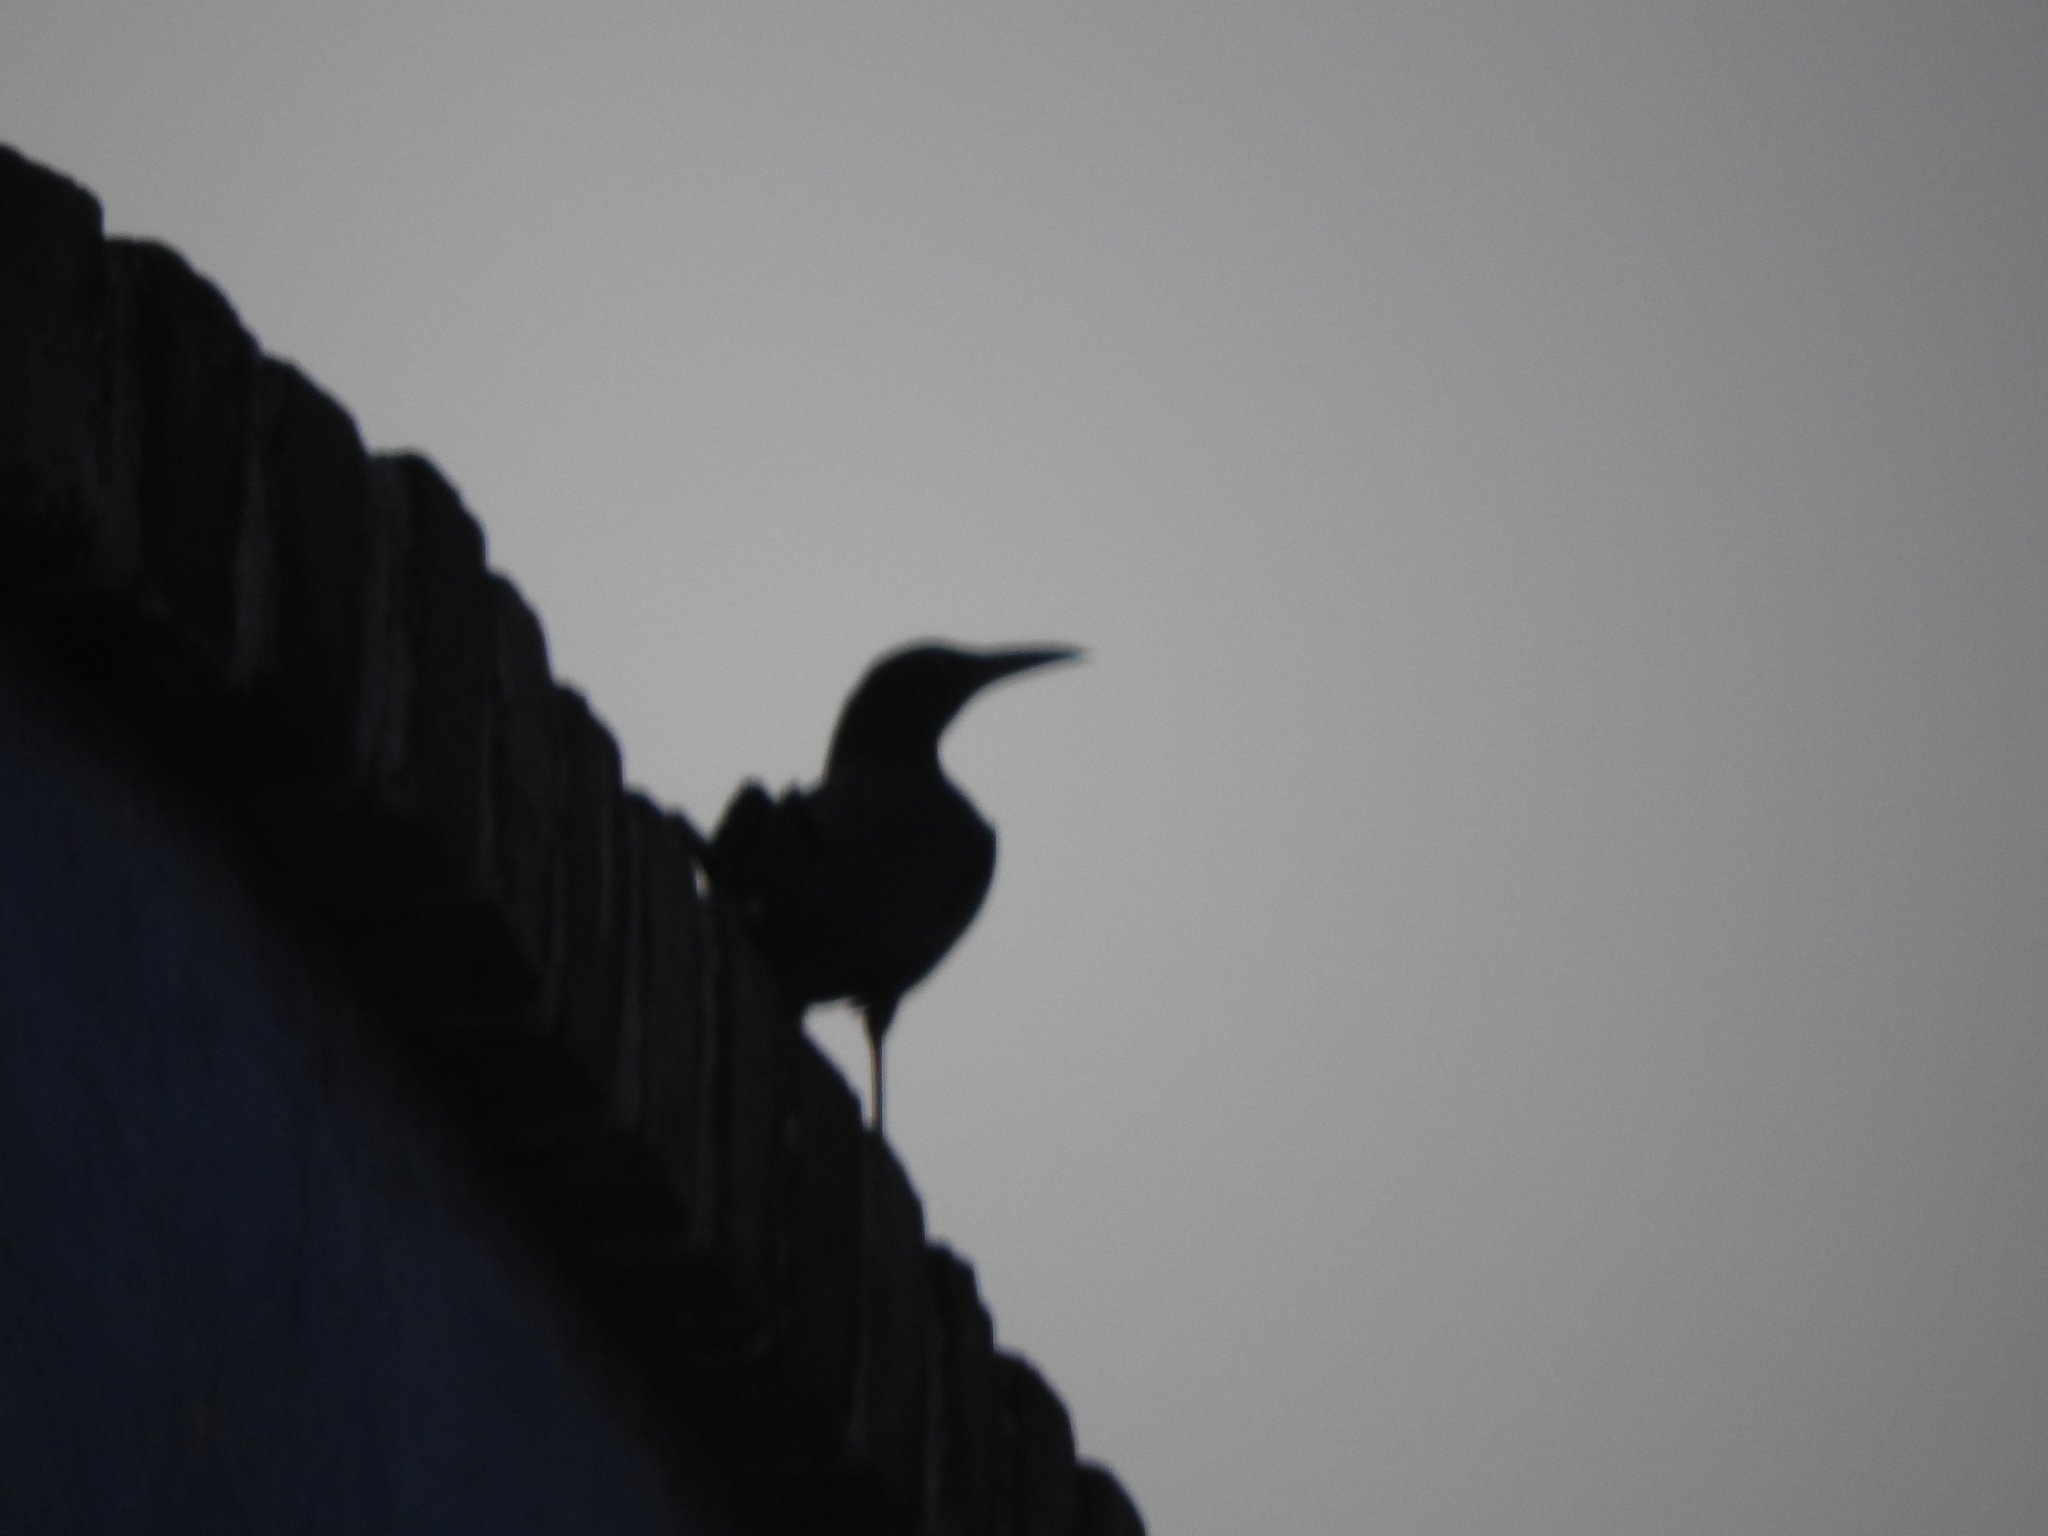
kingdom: Animalia
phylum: Chordata
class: Aves
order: Passeriformes
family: Icteridae
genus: Quiscalus
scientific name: Quiscalus mexicanus
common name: Great-tailed grackle
